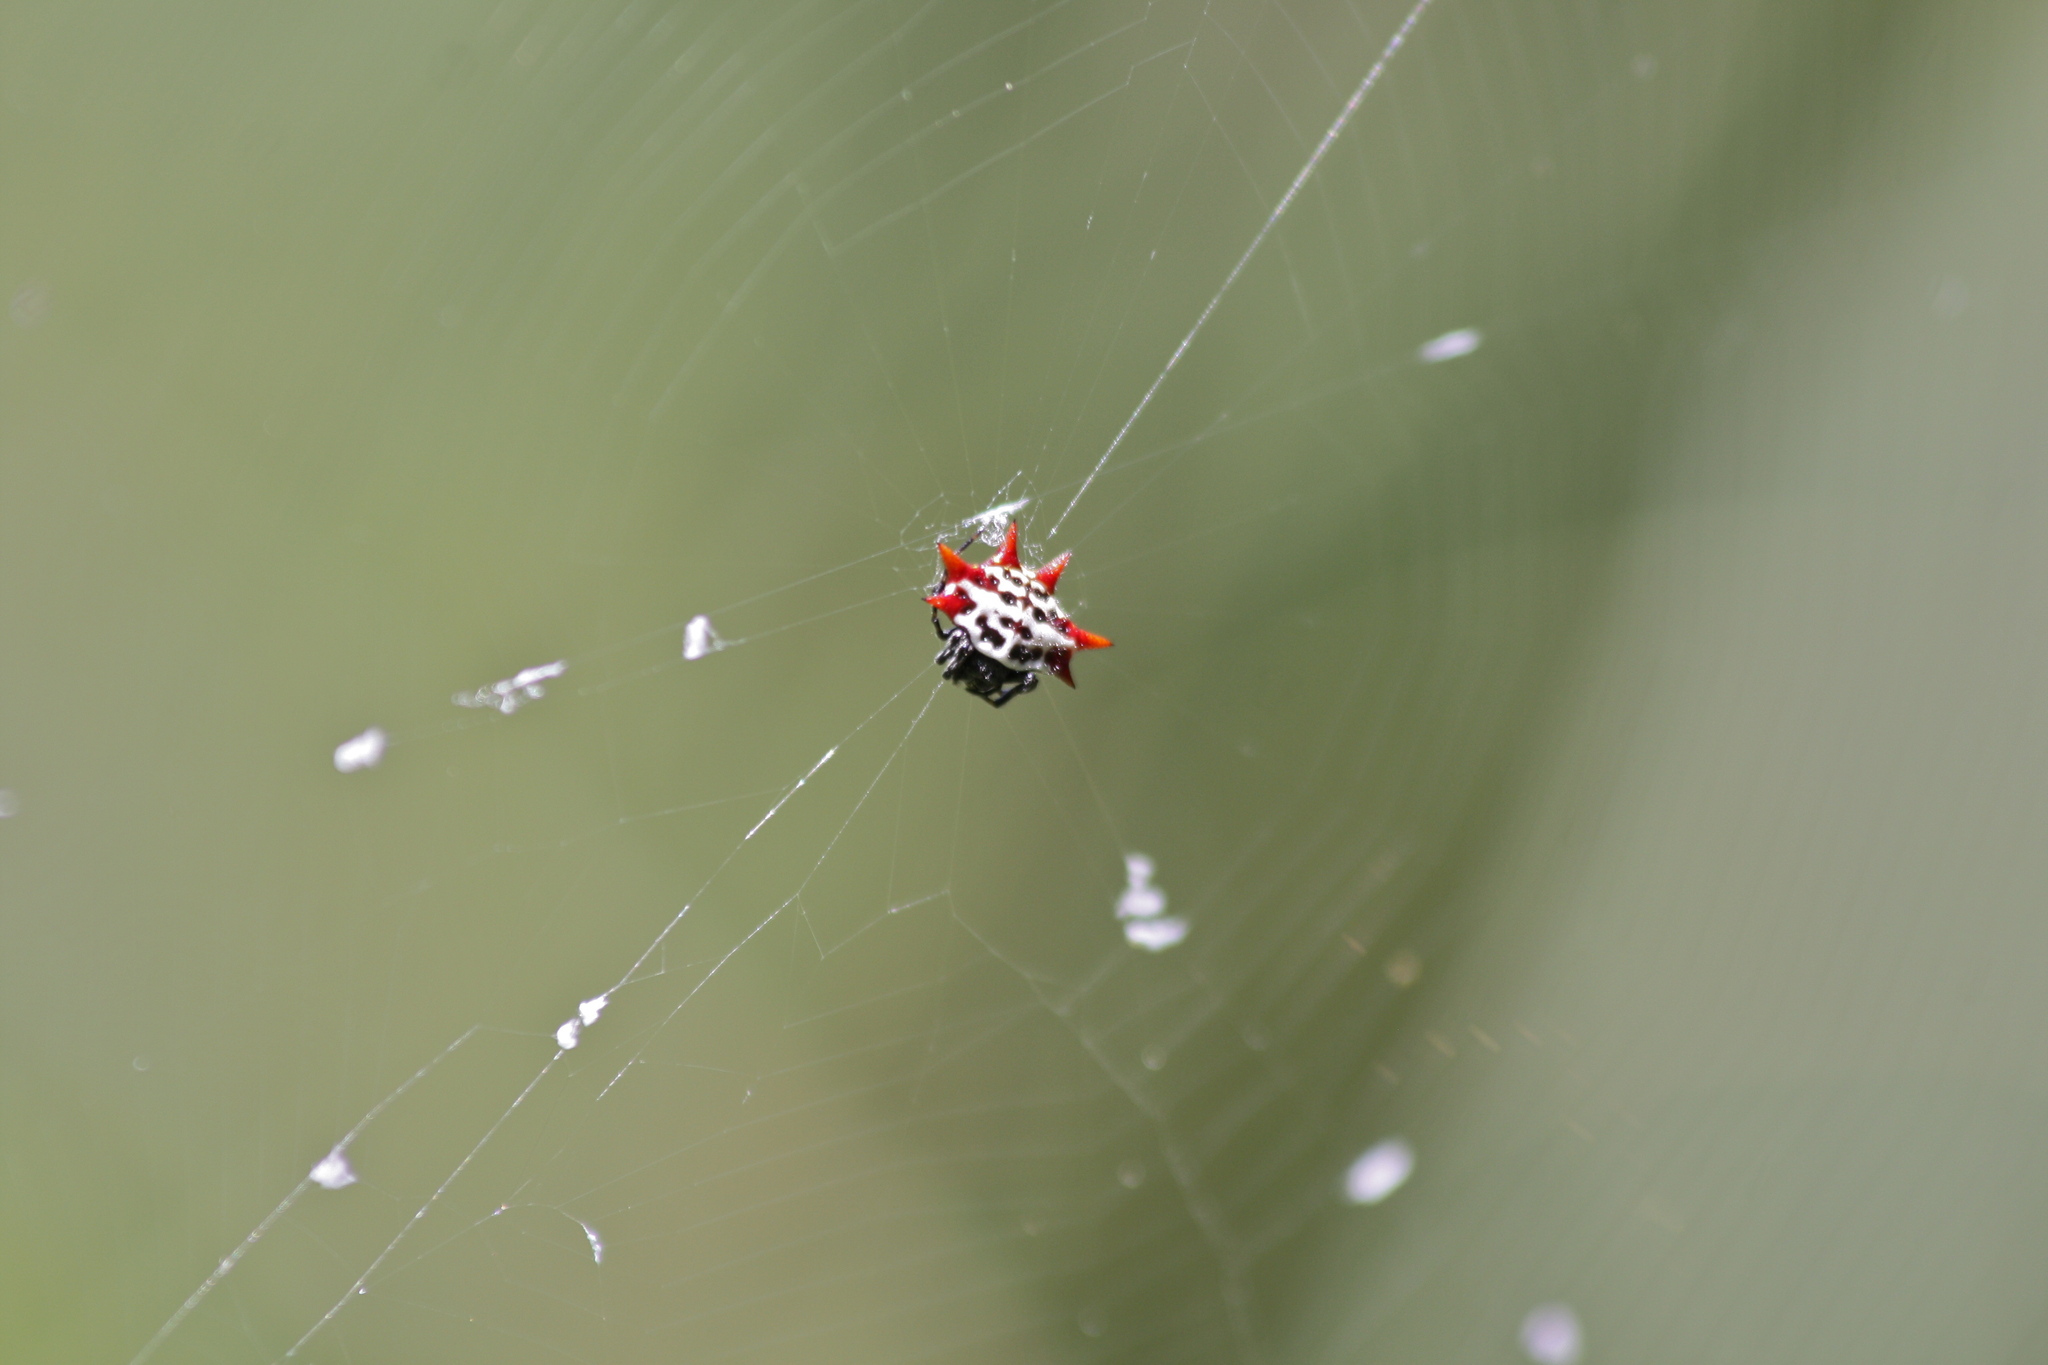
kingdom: Animalia
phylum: Arthropoda
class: Arachnida
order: Araneae
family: Araneidae
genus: Gasteracantha
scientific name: Gasteracantha cancriformis
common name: Orb weavers
